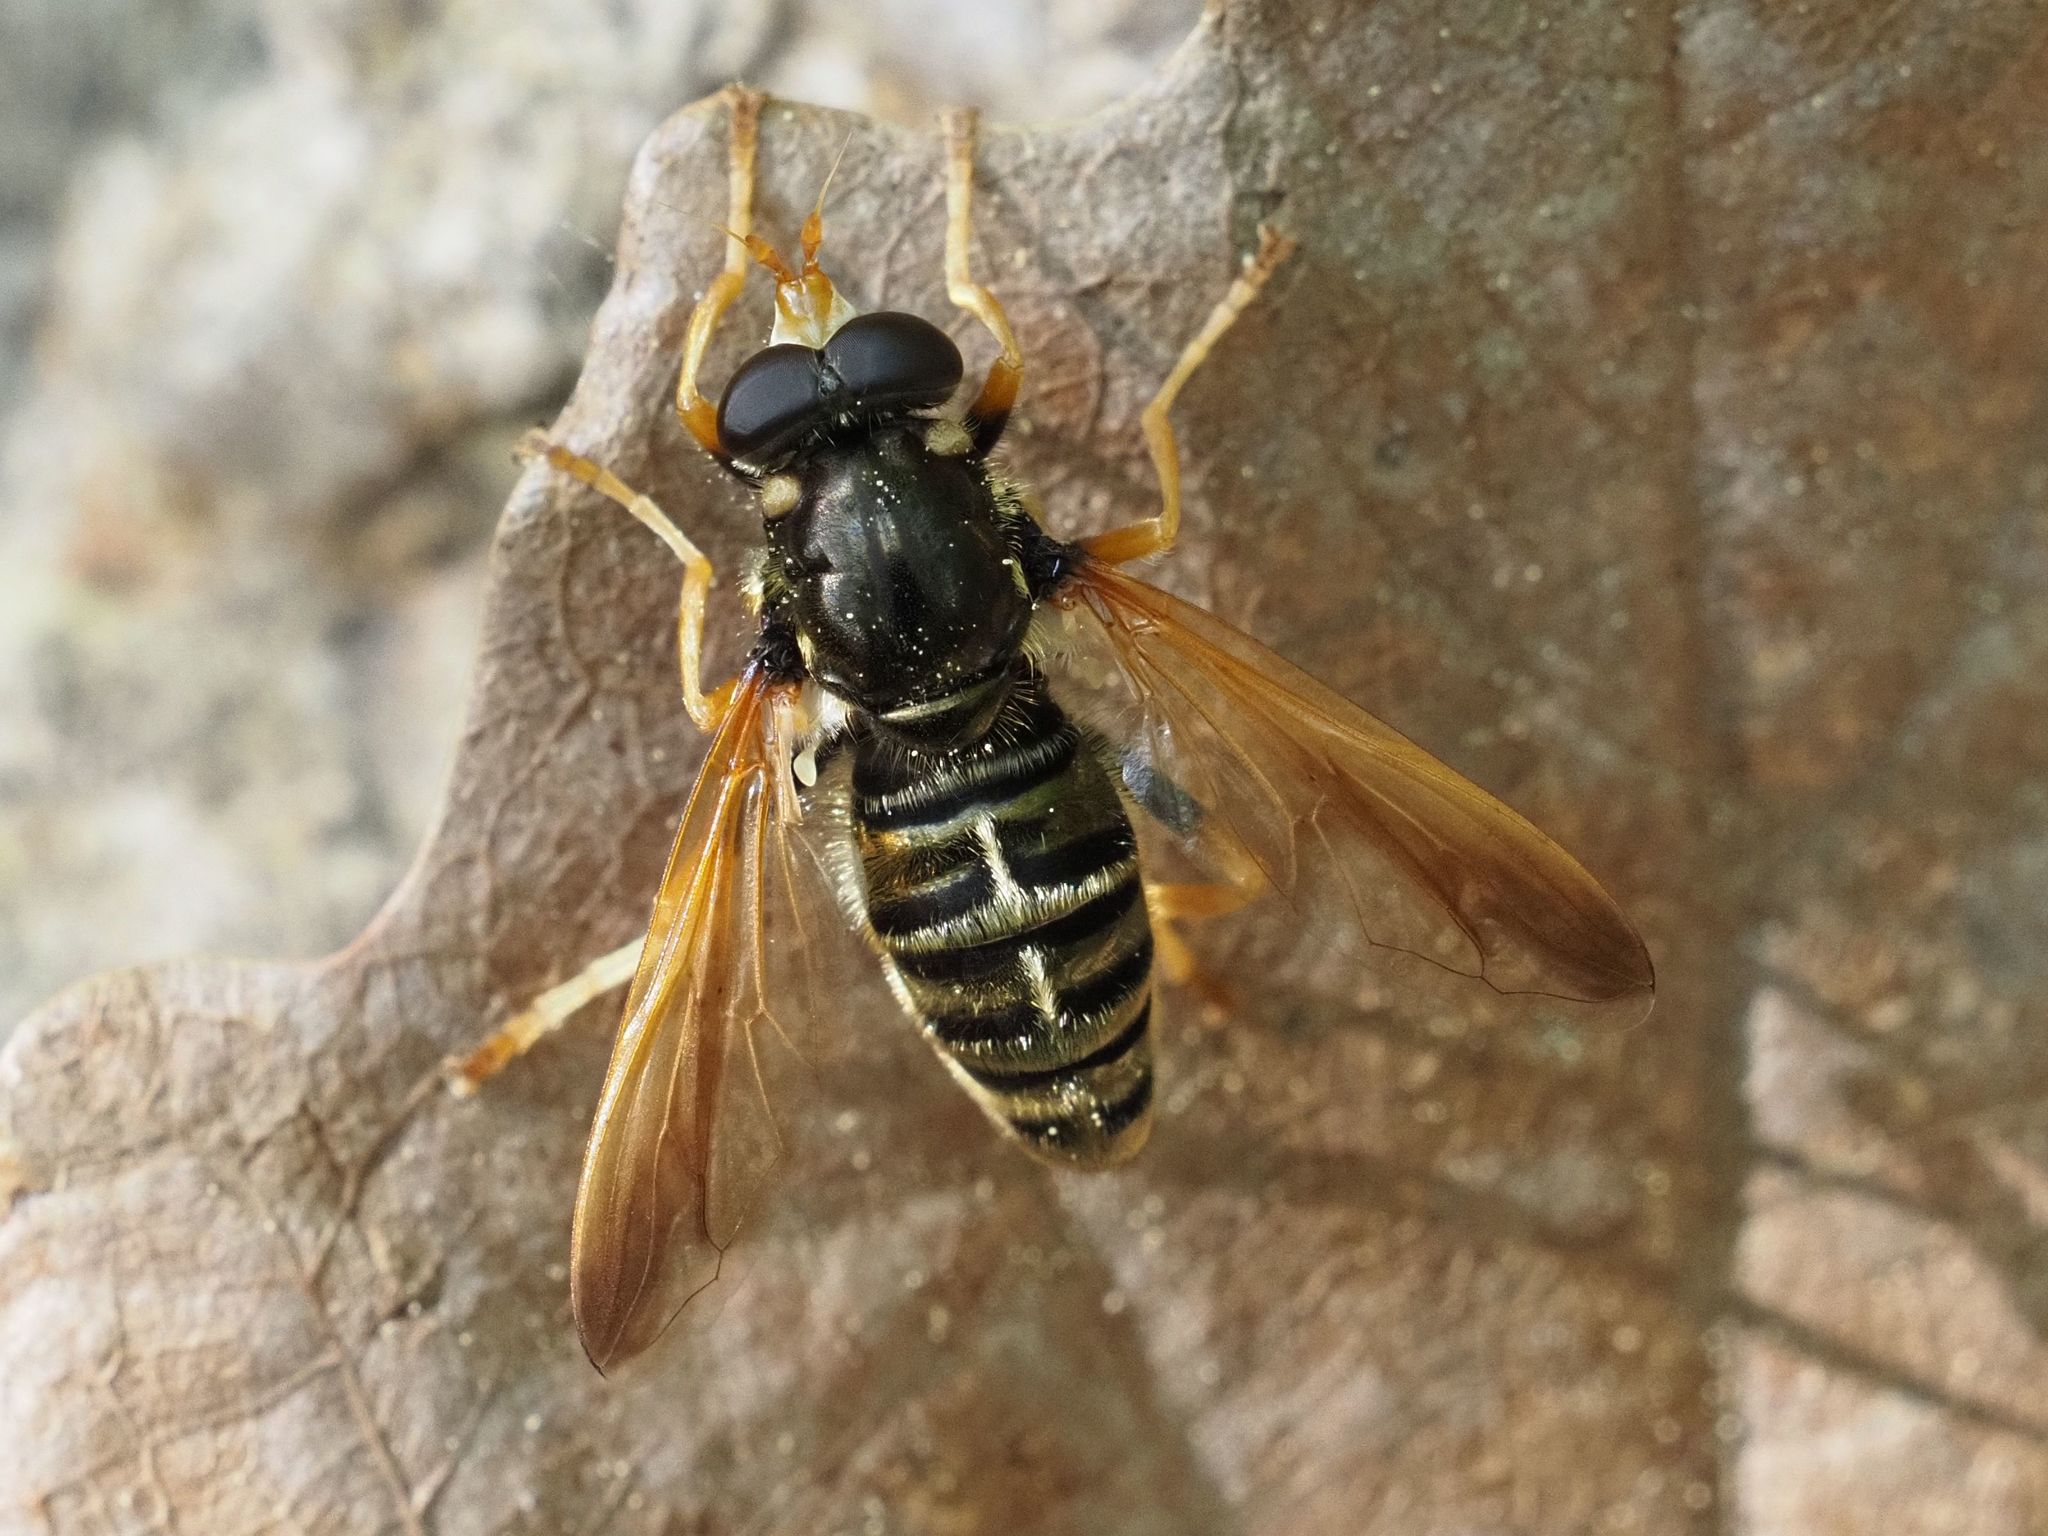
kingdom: Animalia
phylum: Arthropoda
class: Insecta
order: Diptera
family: Syrphidae
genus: Caliprobola
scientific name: Caliprobola speciosa
